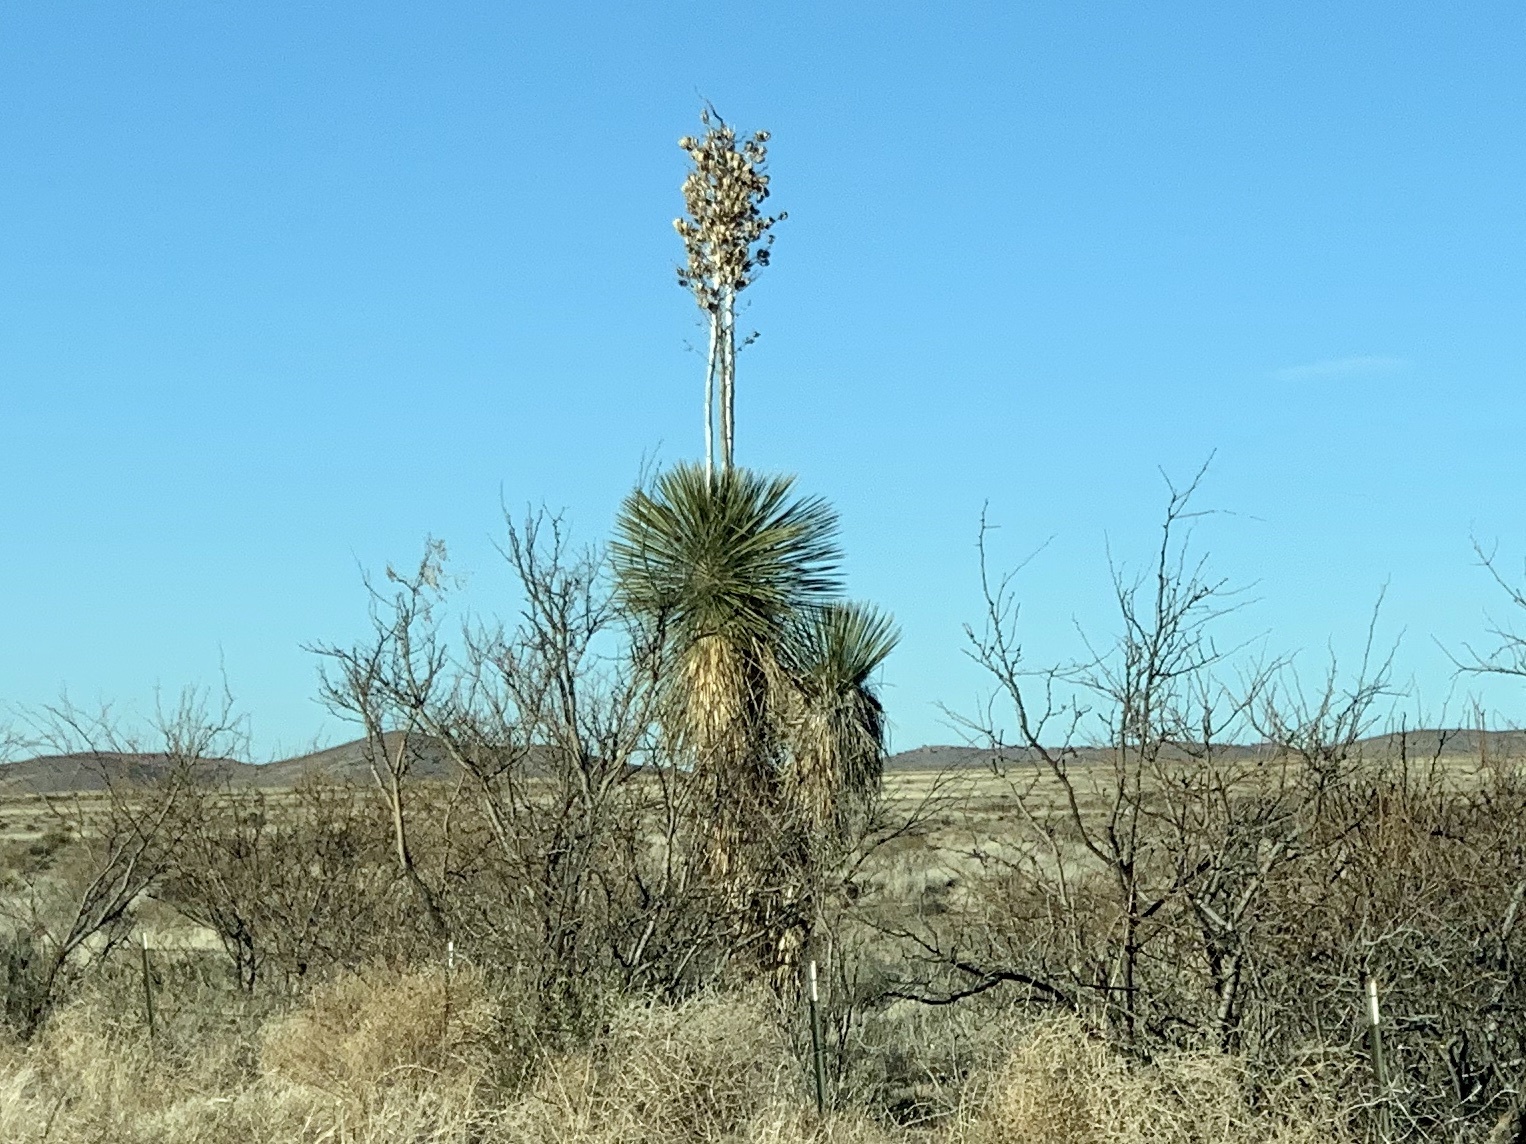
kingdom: Plantae
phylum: Tracheophyta
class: Liliopsida
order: Asparagales
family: Asparagaceae
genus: Yucca
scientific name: Yucca elata
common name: Palmella
